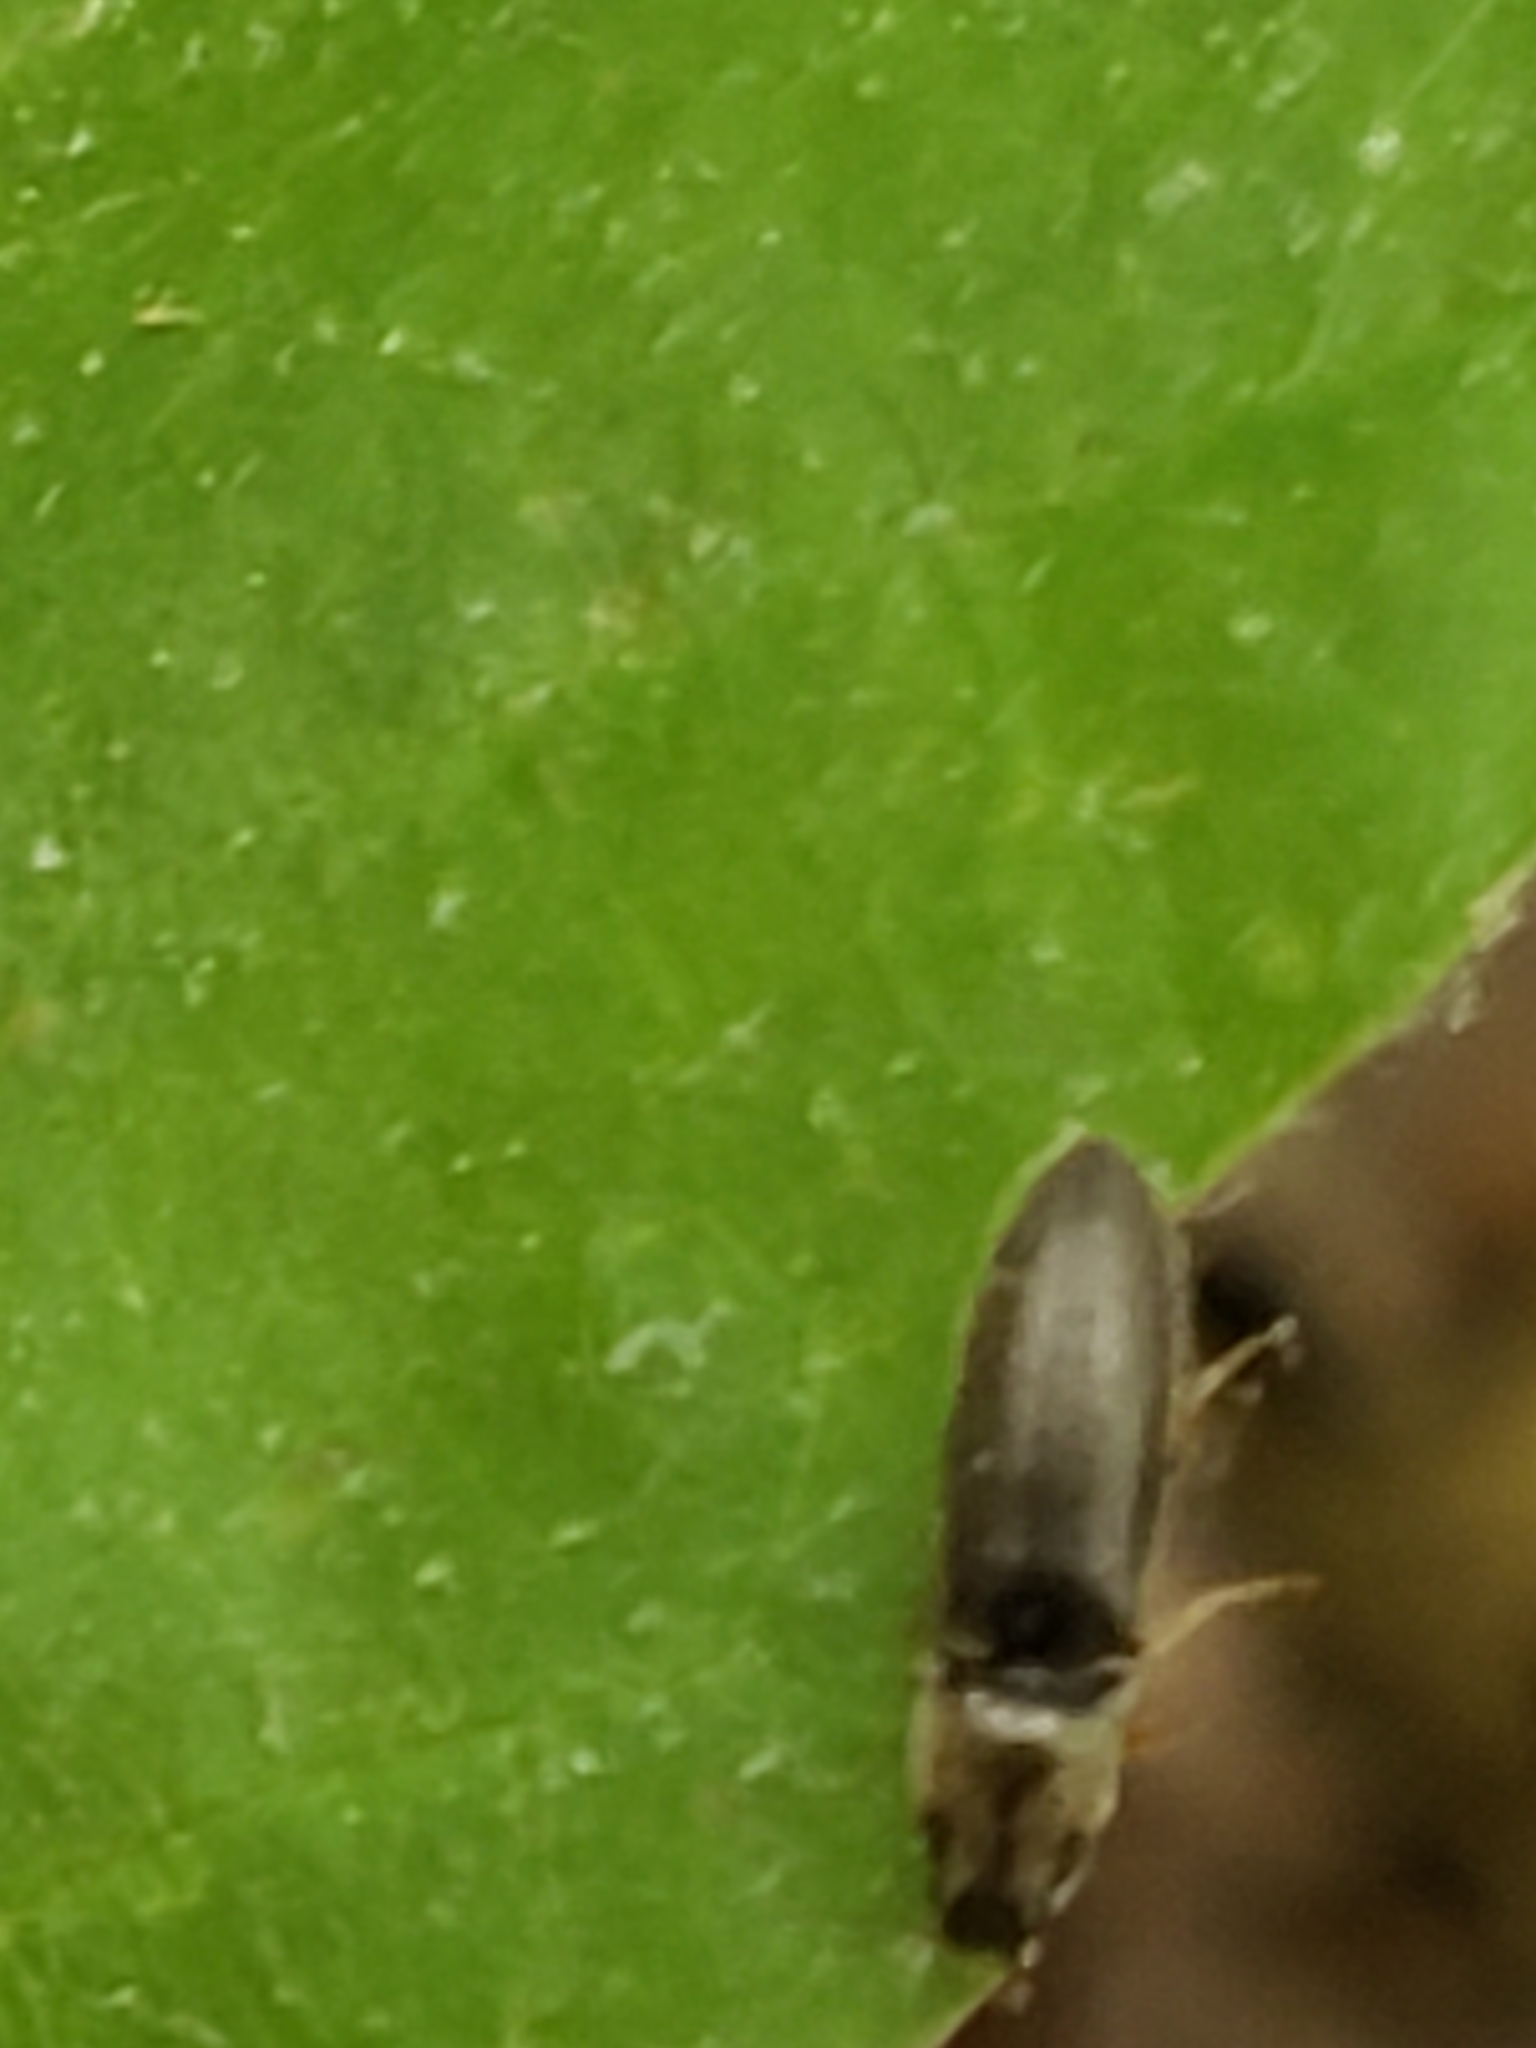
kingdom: Animalia
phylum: Arthropoda
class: Insecta
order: Coleoptera
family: Elateridae
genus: Limonius
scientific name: Limonius quercinus
